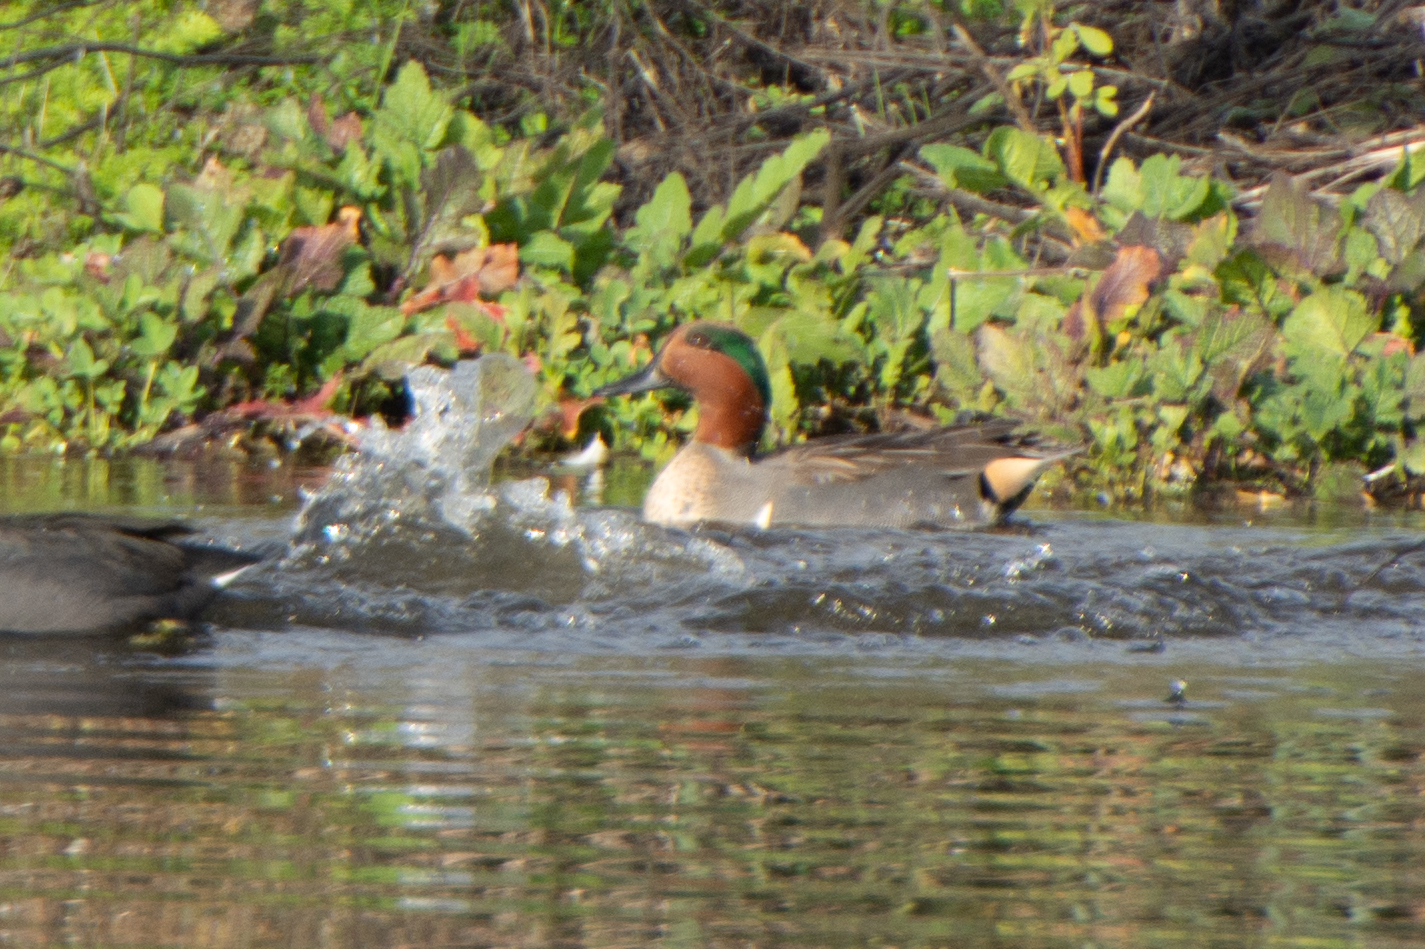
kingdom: Animalia
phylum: Chordata
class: Aves
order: Anseriformes
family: Anatidae
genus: Anas
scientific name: Anas crecca
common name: Eurasian teal
